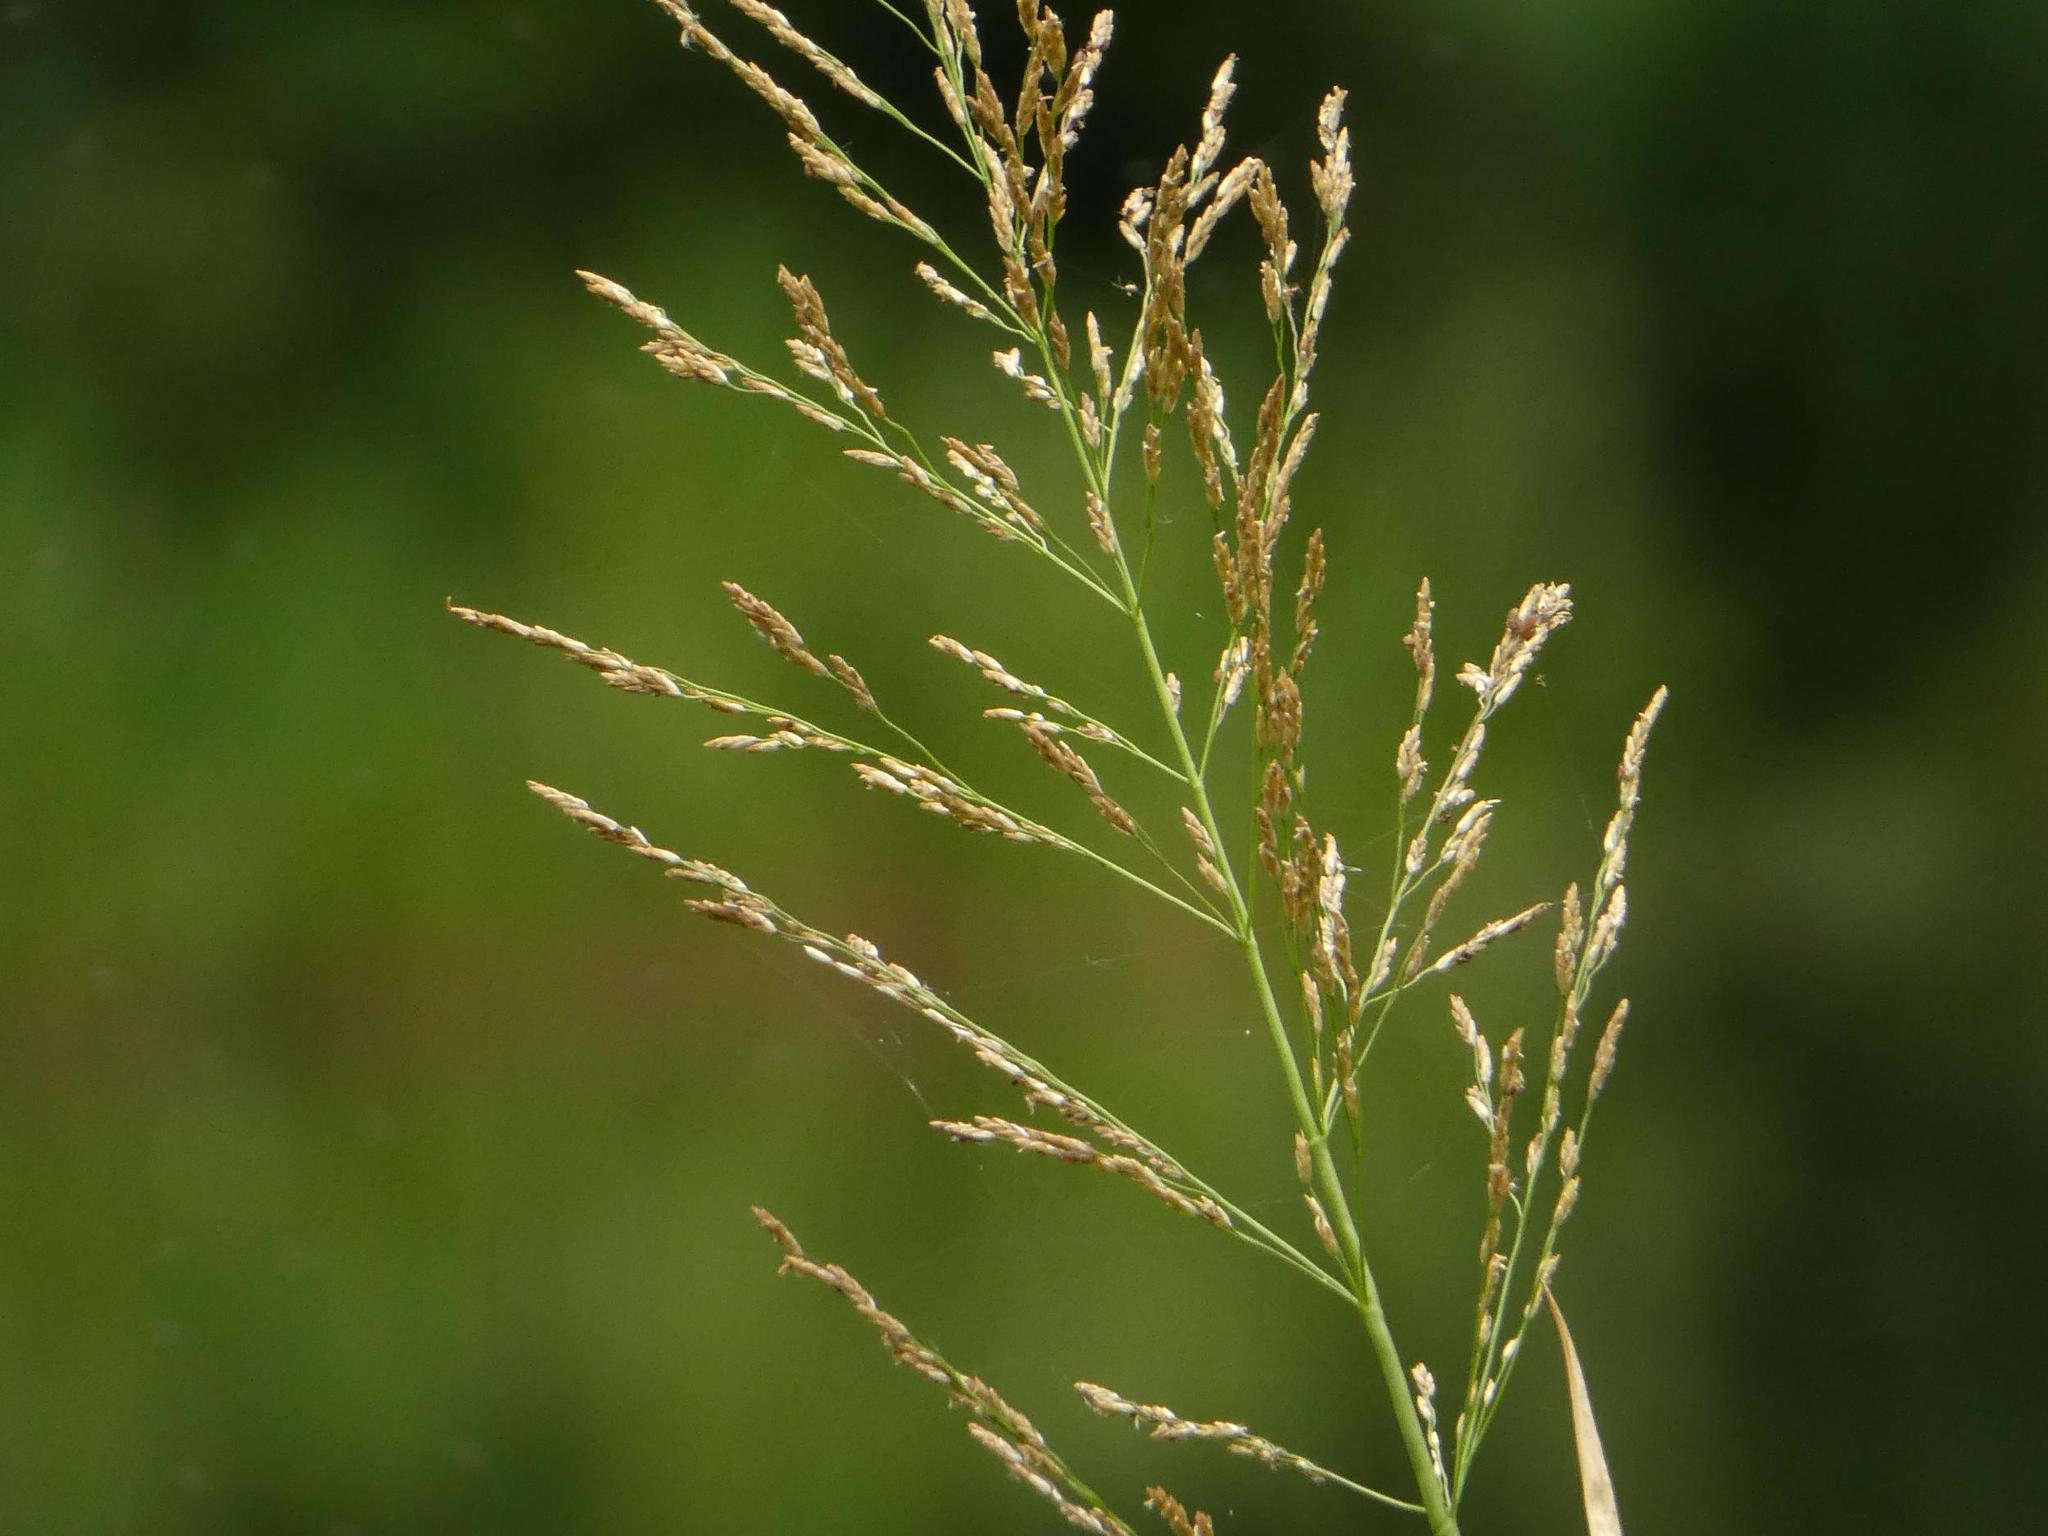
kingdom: Plantae
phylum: Tracheophyta
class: Liliopsida
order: Poales
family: Poaceae
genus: Glyceria
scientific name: Glyceria maxima
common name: Reed mannagrass
